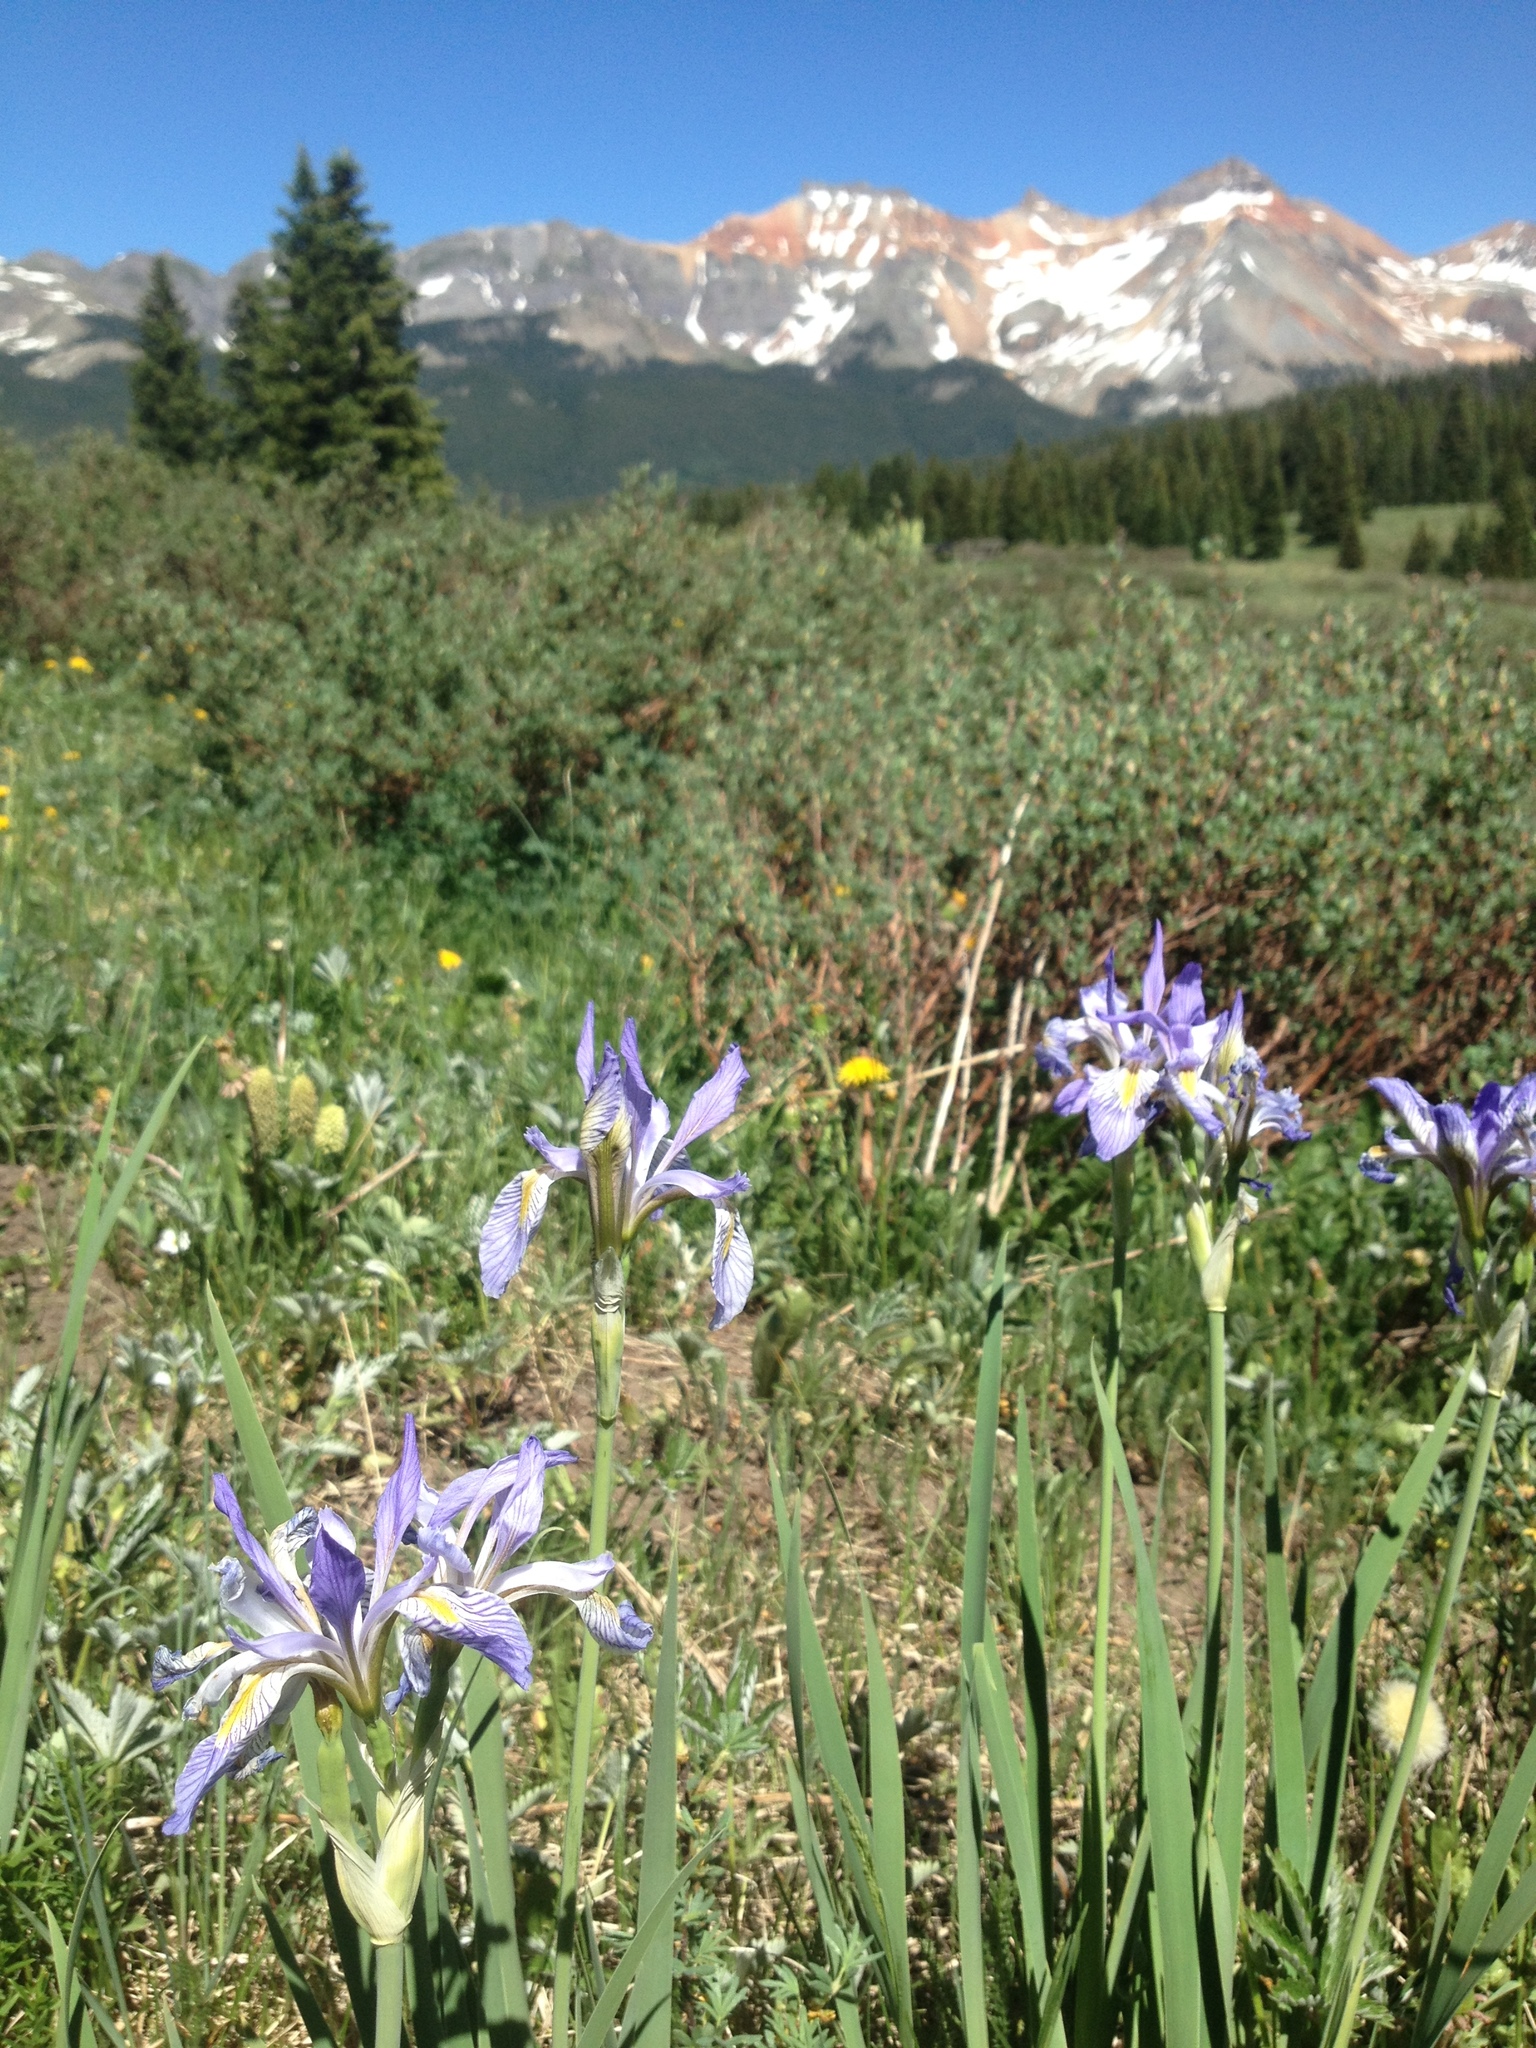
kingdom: Plantae
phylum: Tracheophyta
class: Liliopsida
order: Asparagales
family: Iridaceae
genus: Iris
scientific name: Iris missouriensis
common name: Rocky mountain iris
